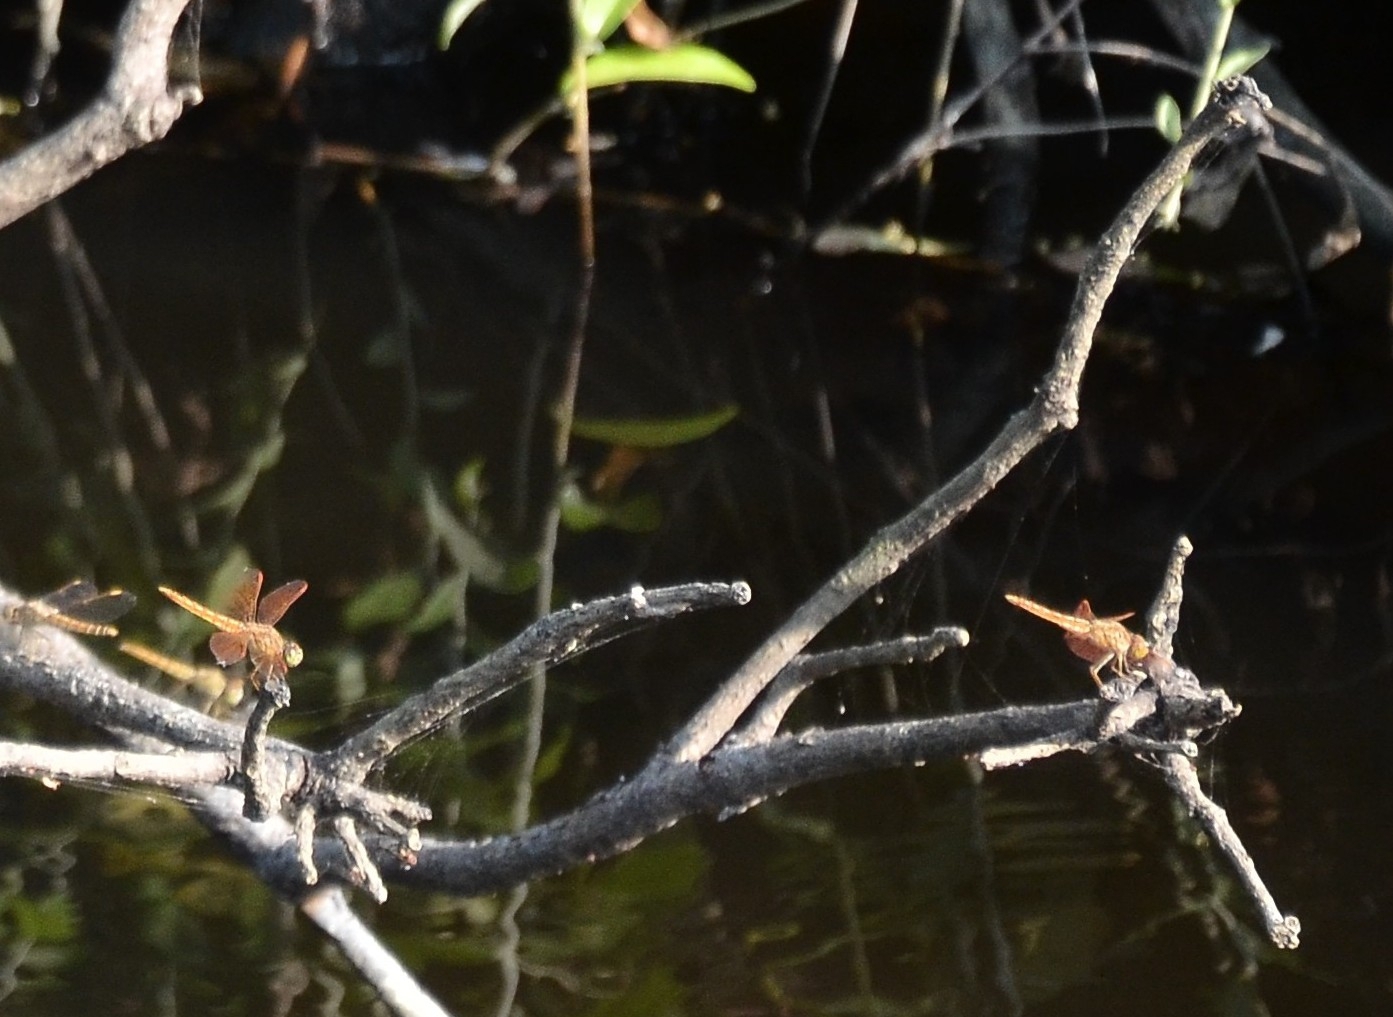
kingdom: Animalia
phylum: Arthropoda
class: Insecta
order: Odonata
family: Libellulidae
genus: Brachythemis
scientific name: Brachythemis contaminata
